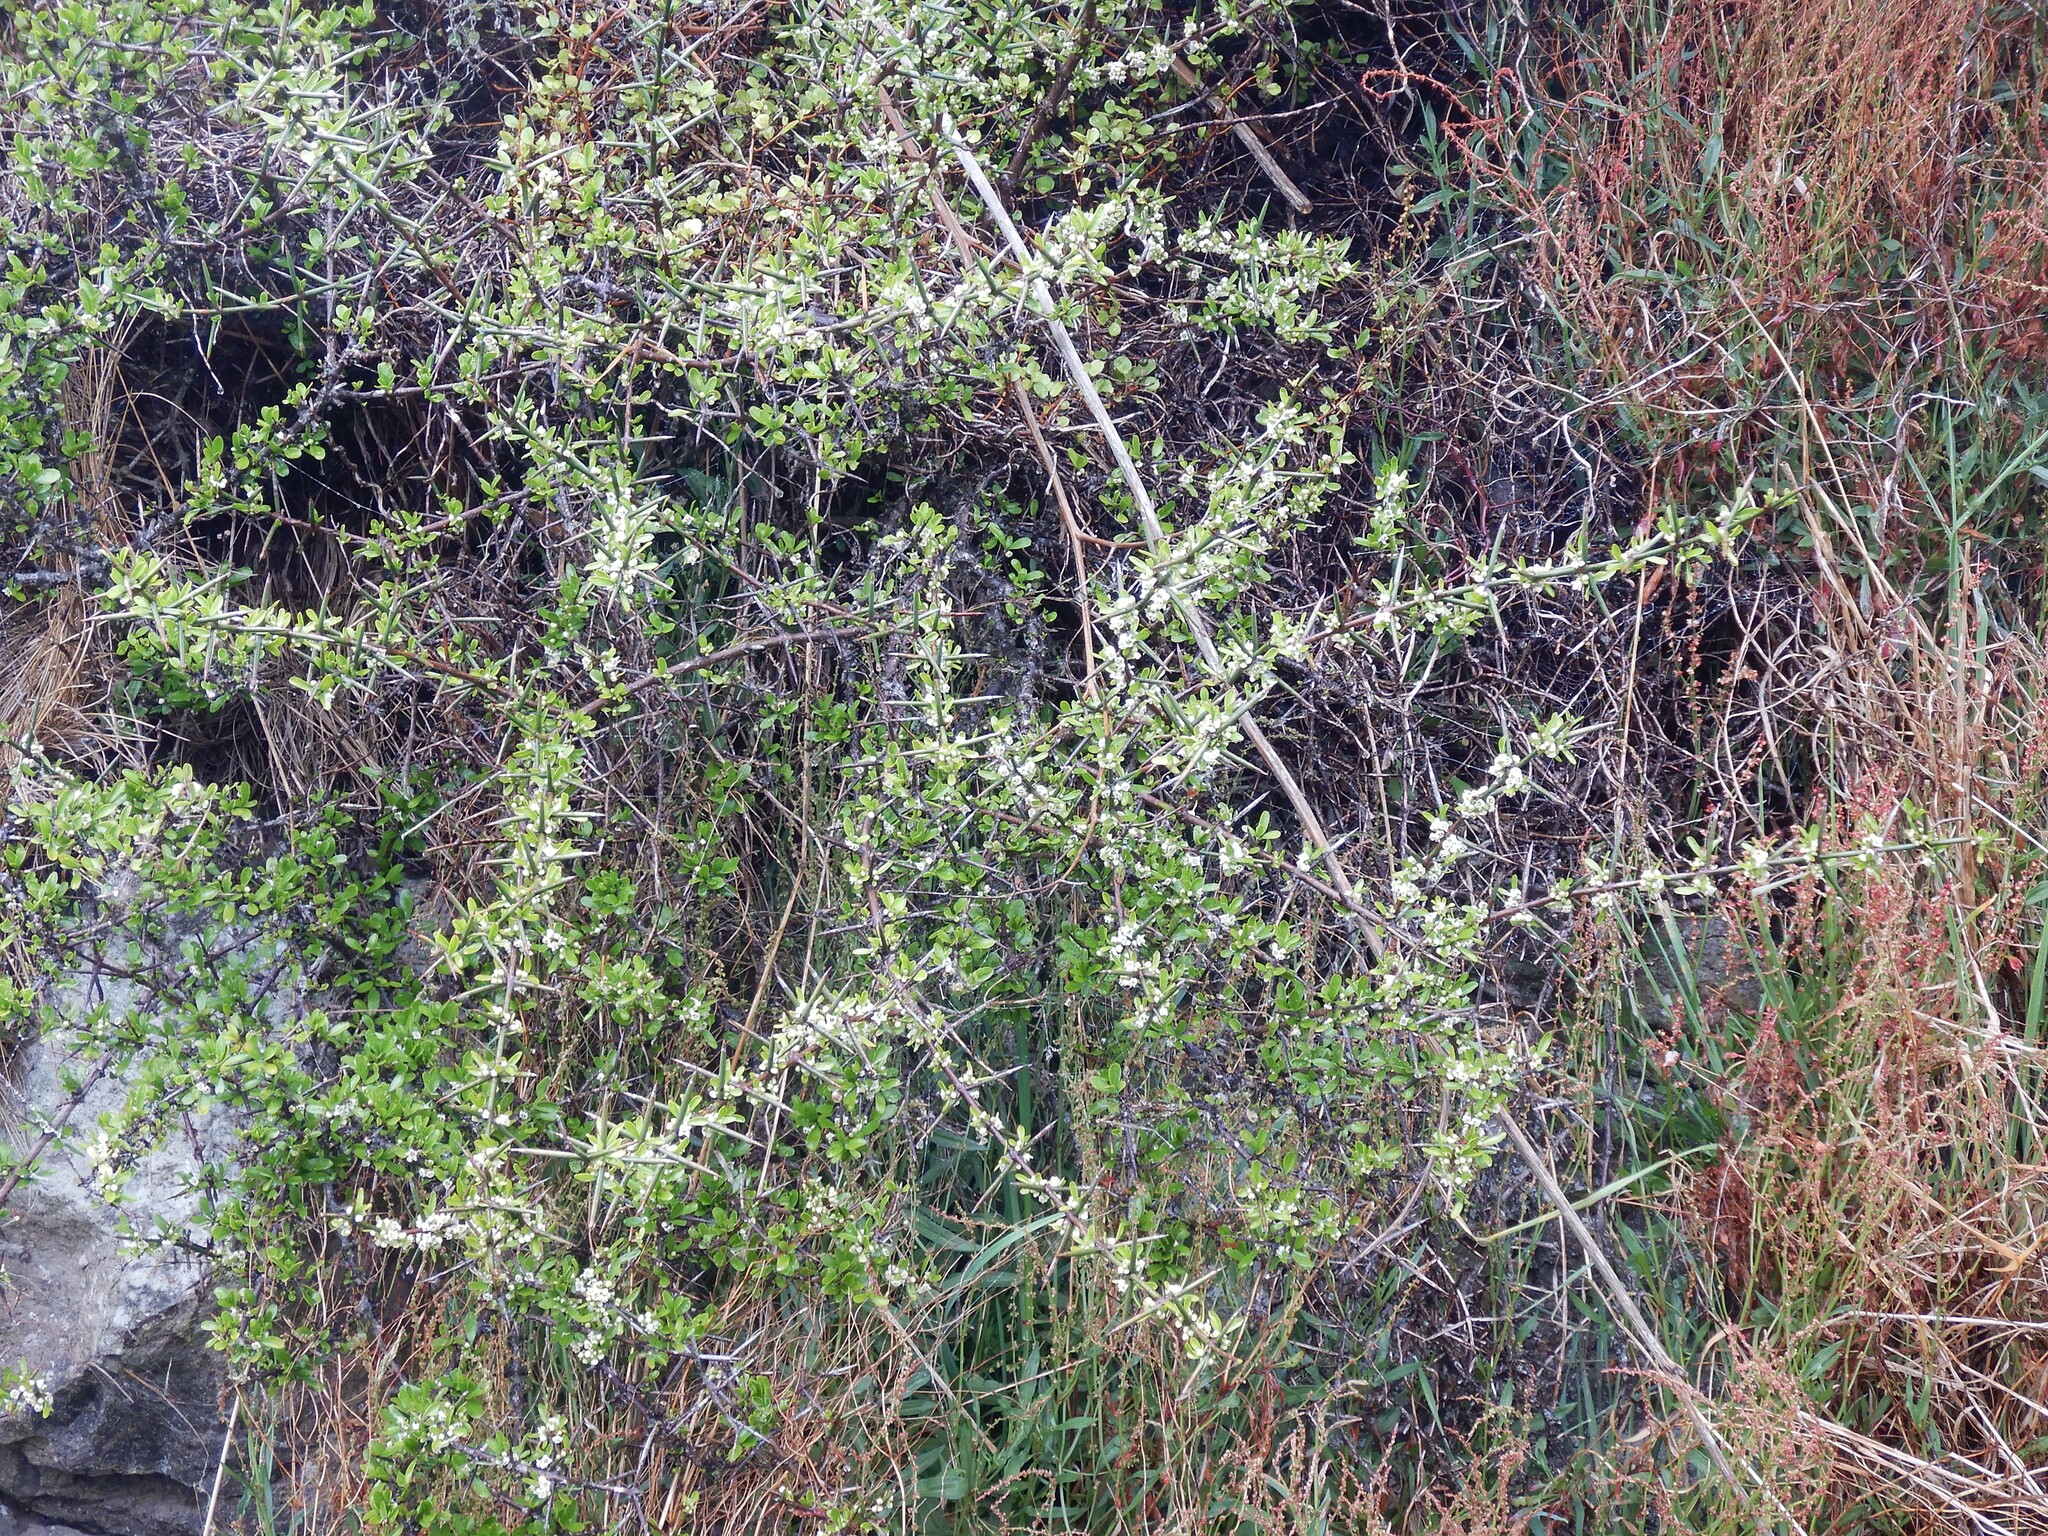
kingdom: Plantae
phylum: Tracheophyta
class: Magnoliopsida
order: Rosales
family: Rhamnaceae
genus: Discaria
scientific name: Discaria toumatou
